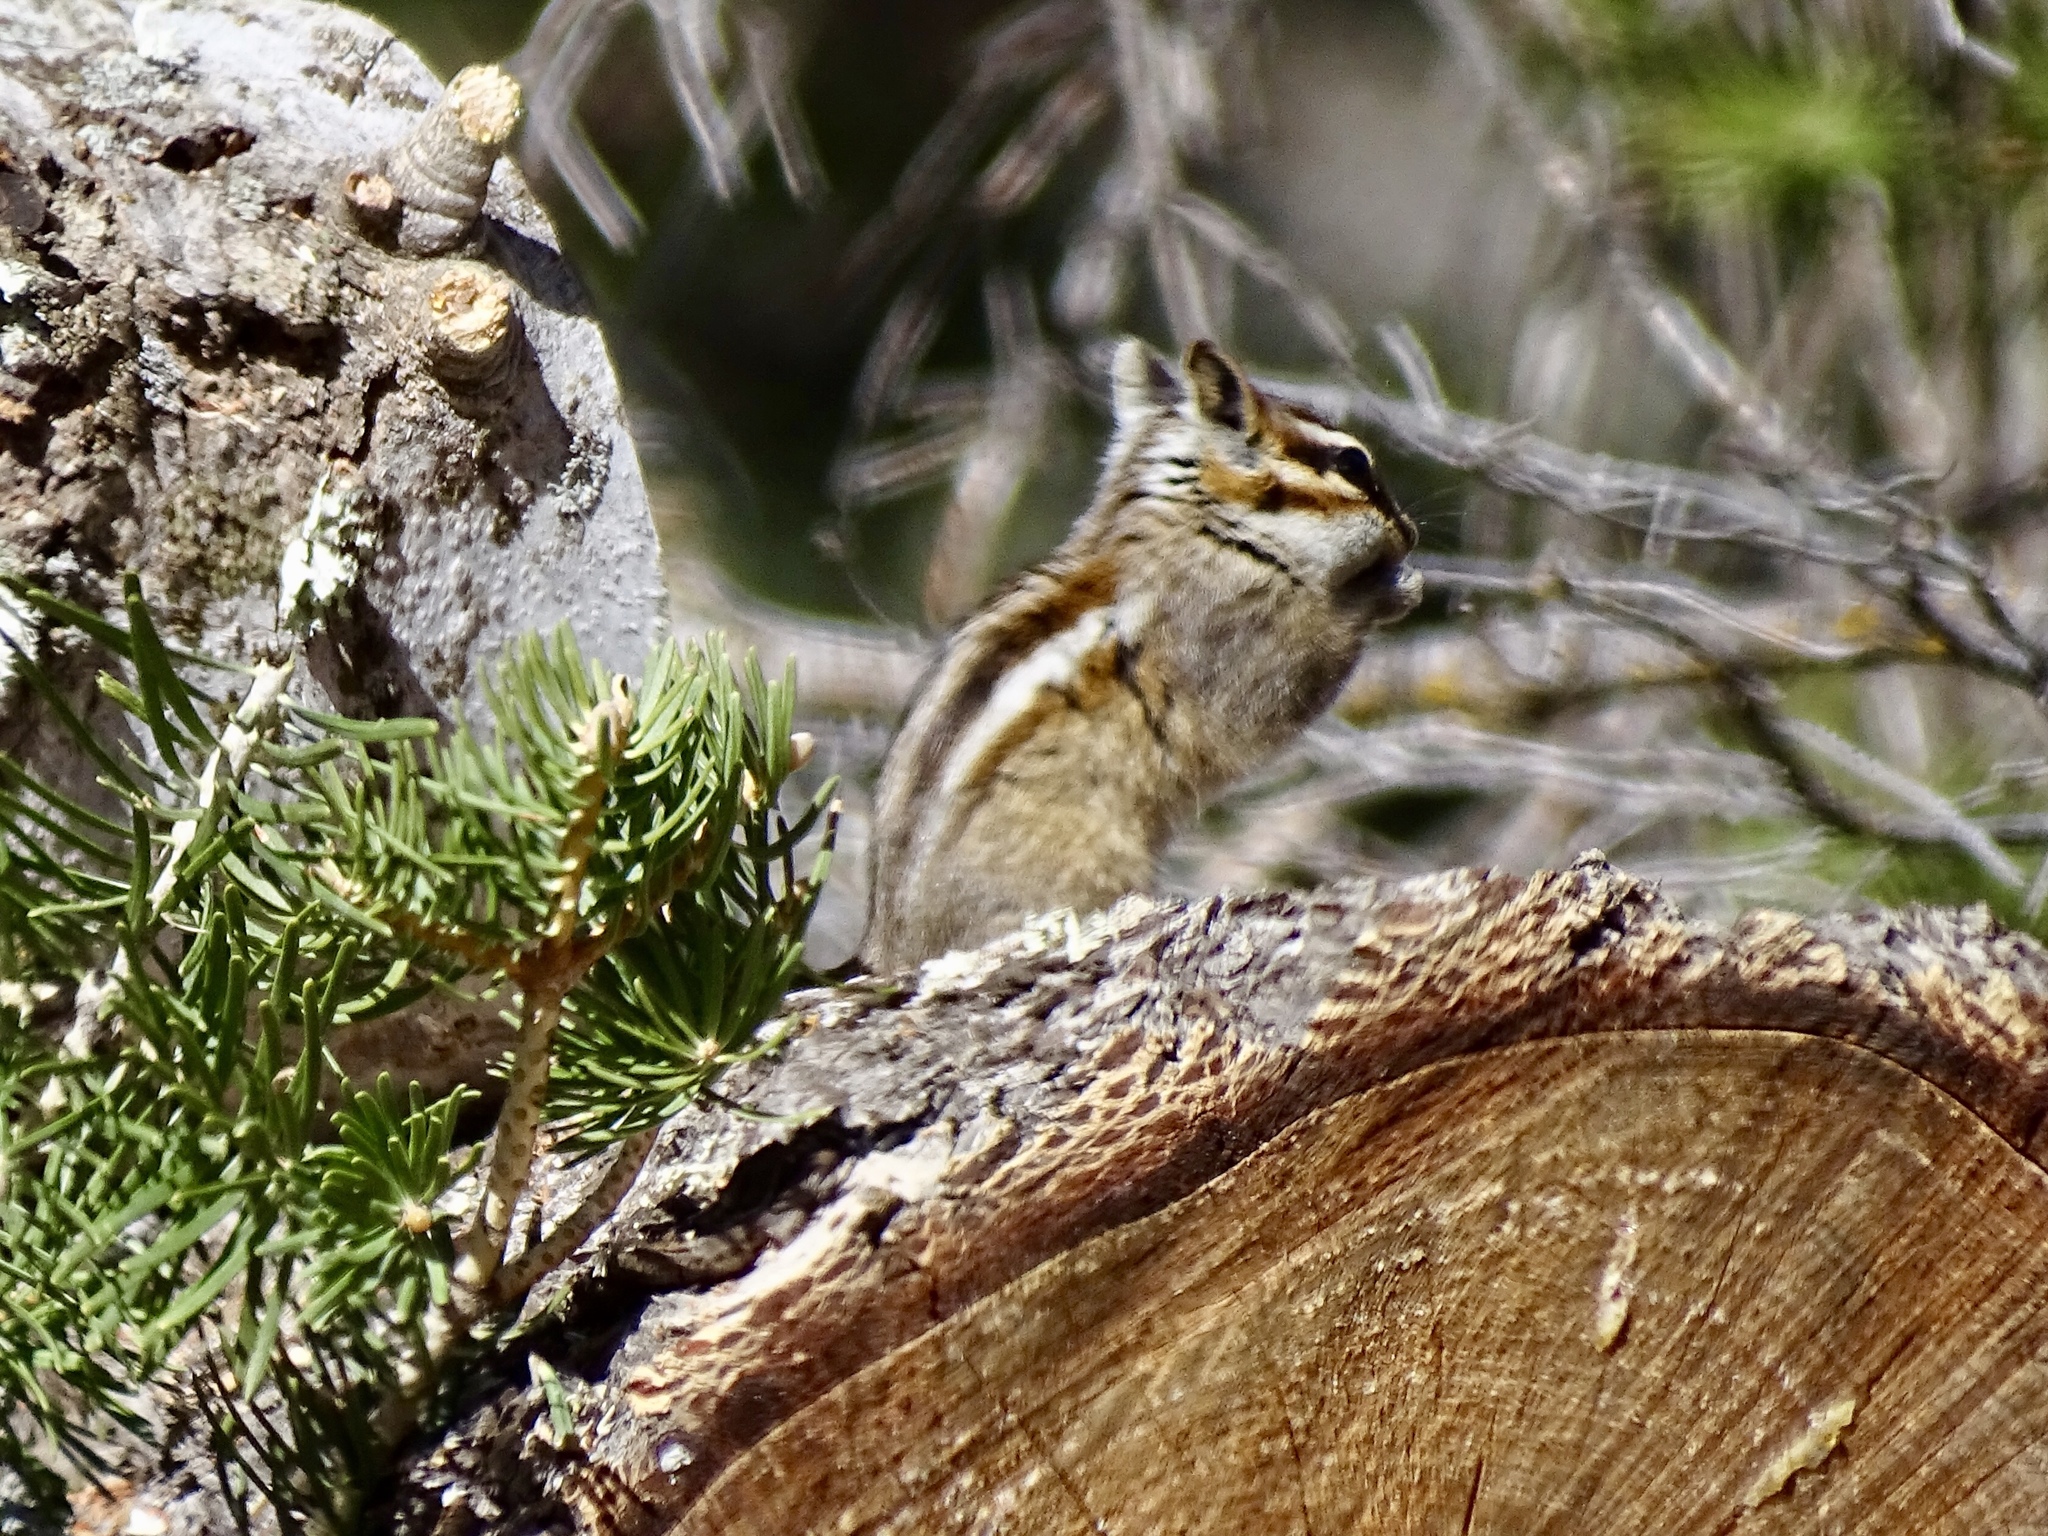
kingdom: Animalia
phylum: Chordata
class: Mammalia
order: Rodentia
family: Sciuridae
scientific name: Sciuridae
